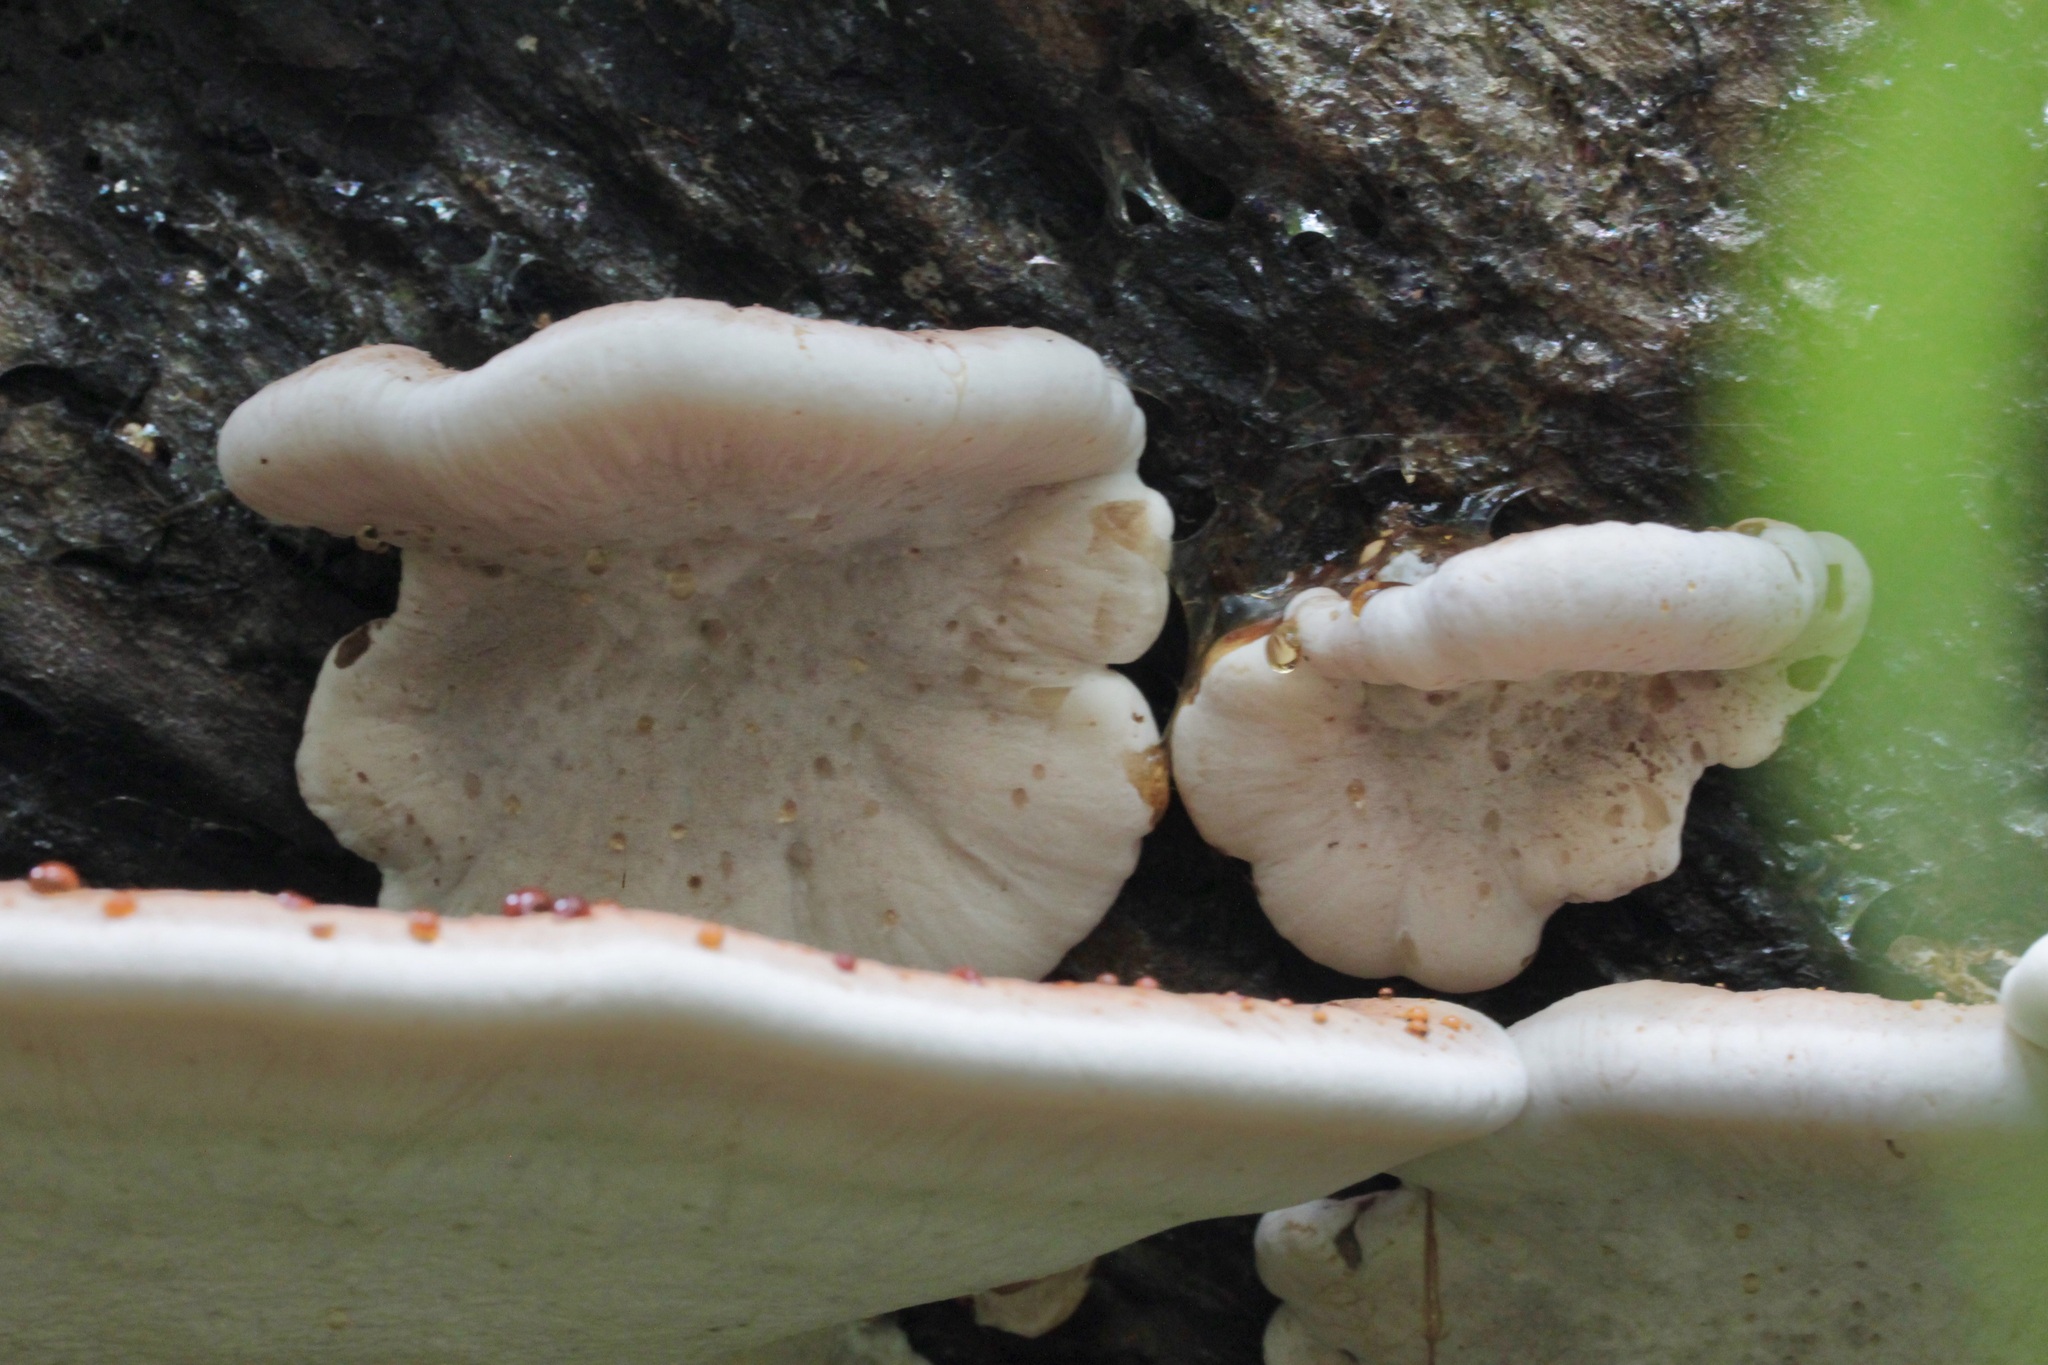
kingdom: Fungi
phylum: Basidiomycota
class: Agaricomycetes
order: Polyporales
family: Ischnodermataceae
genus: Ischnoderma
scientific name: Ischnoderma resinosum
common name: Resinous polypore
